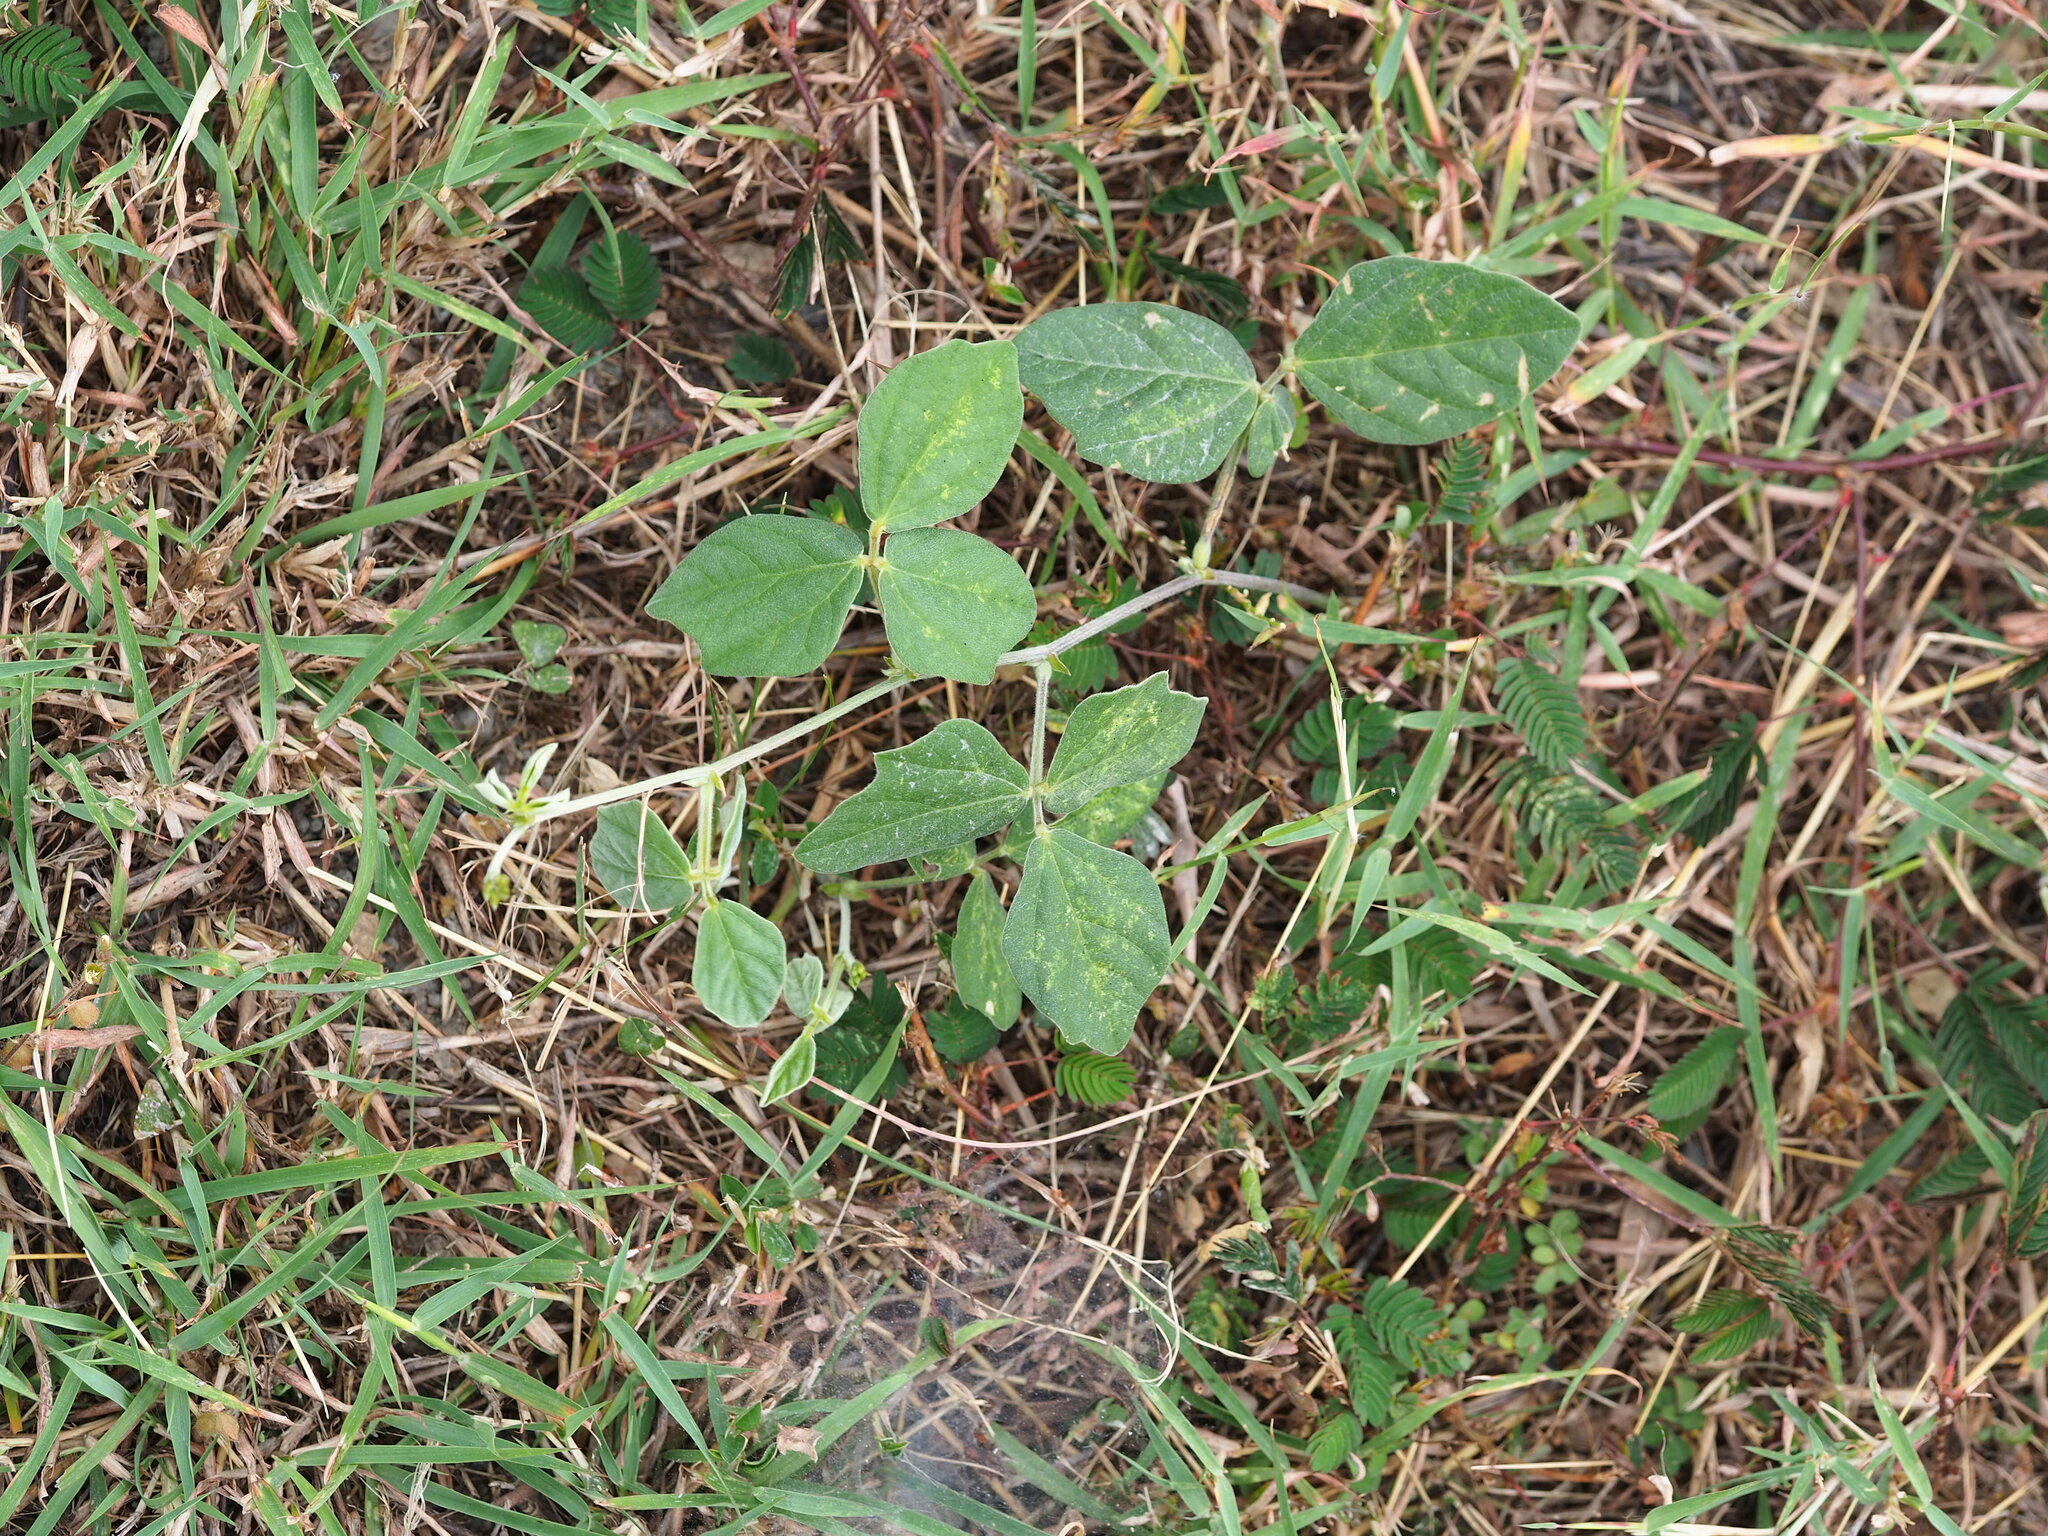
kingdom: Plantae
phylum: Tracheophyta
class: Magnoliopsida
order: Fabales
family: Fabaceae
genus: Macroptilium
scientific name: Macroptilium atropurpureum
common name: Purple bushbean
